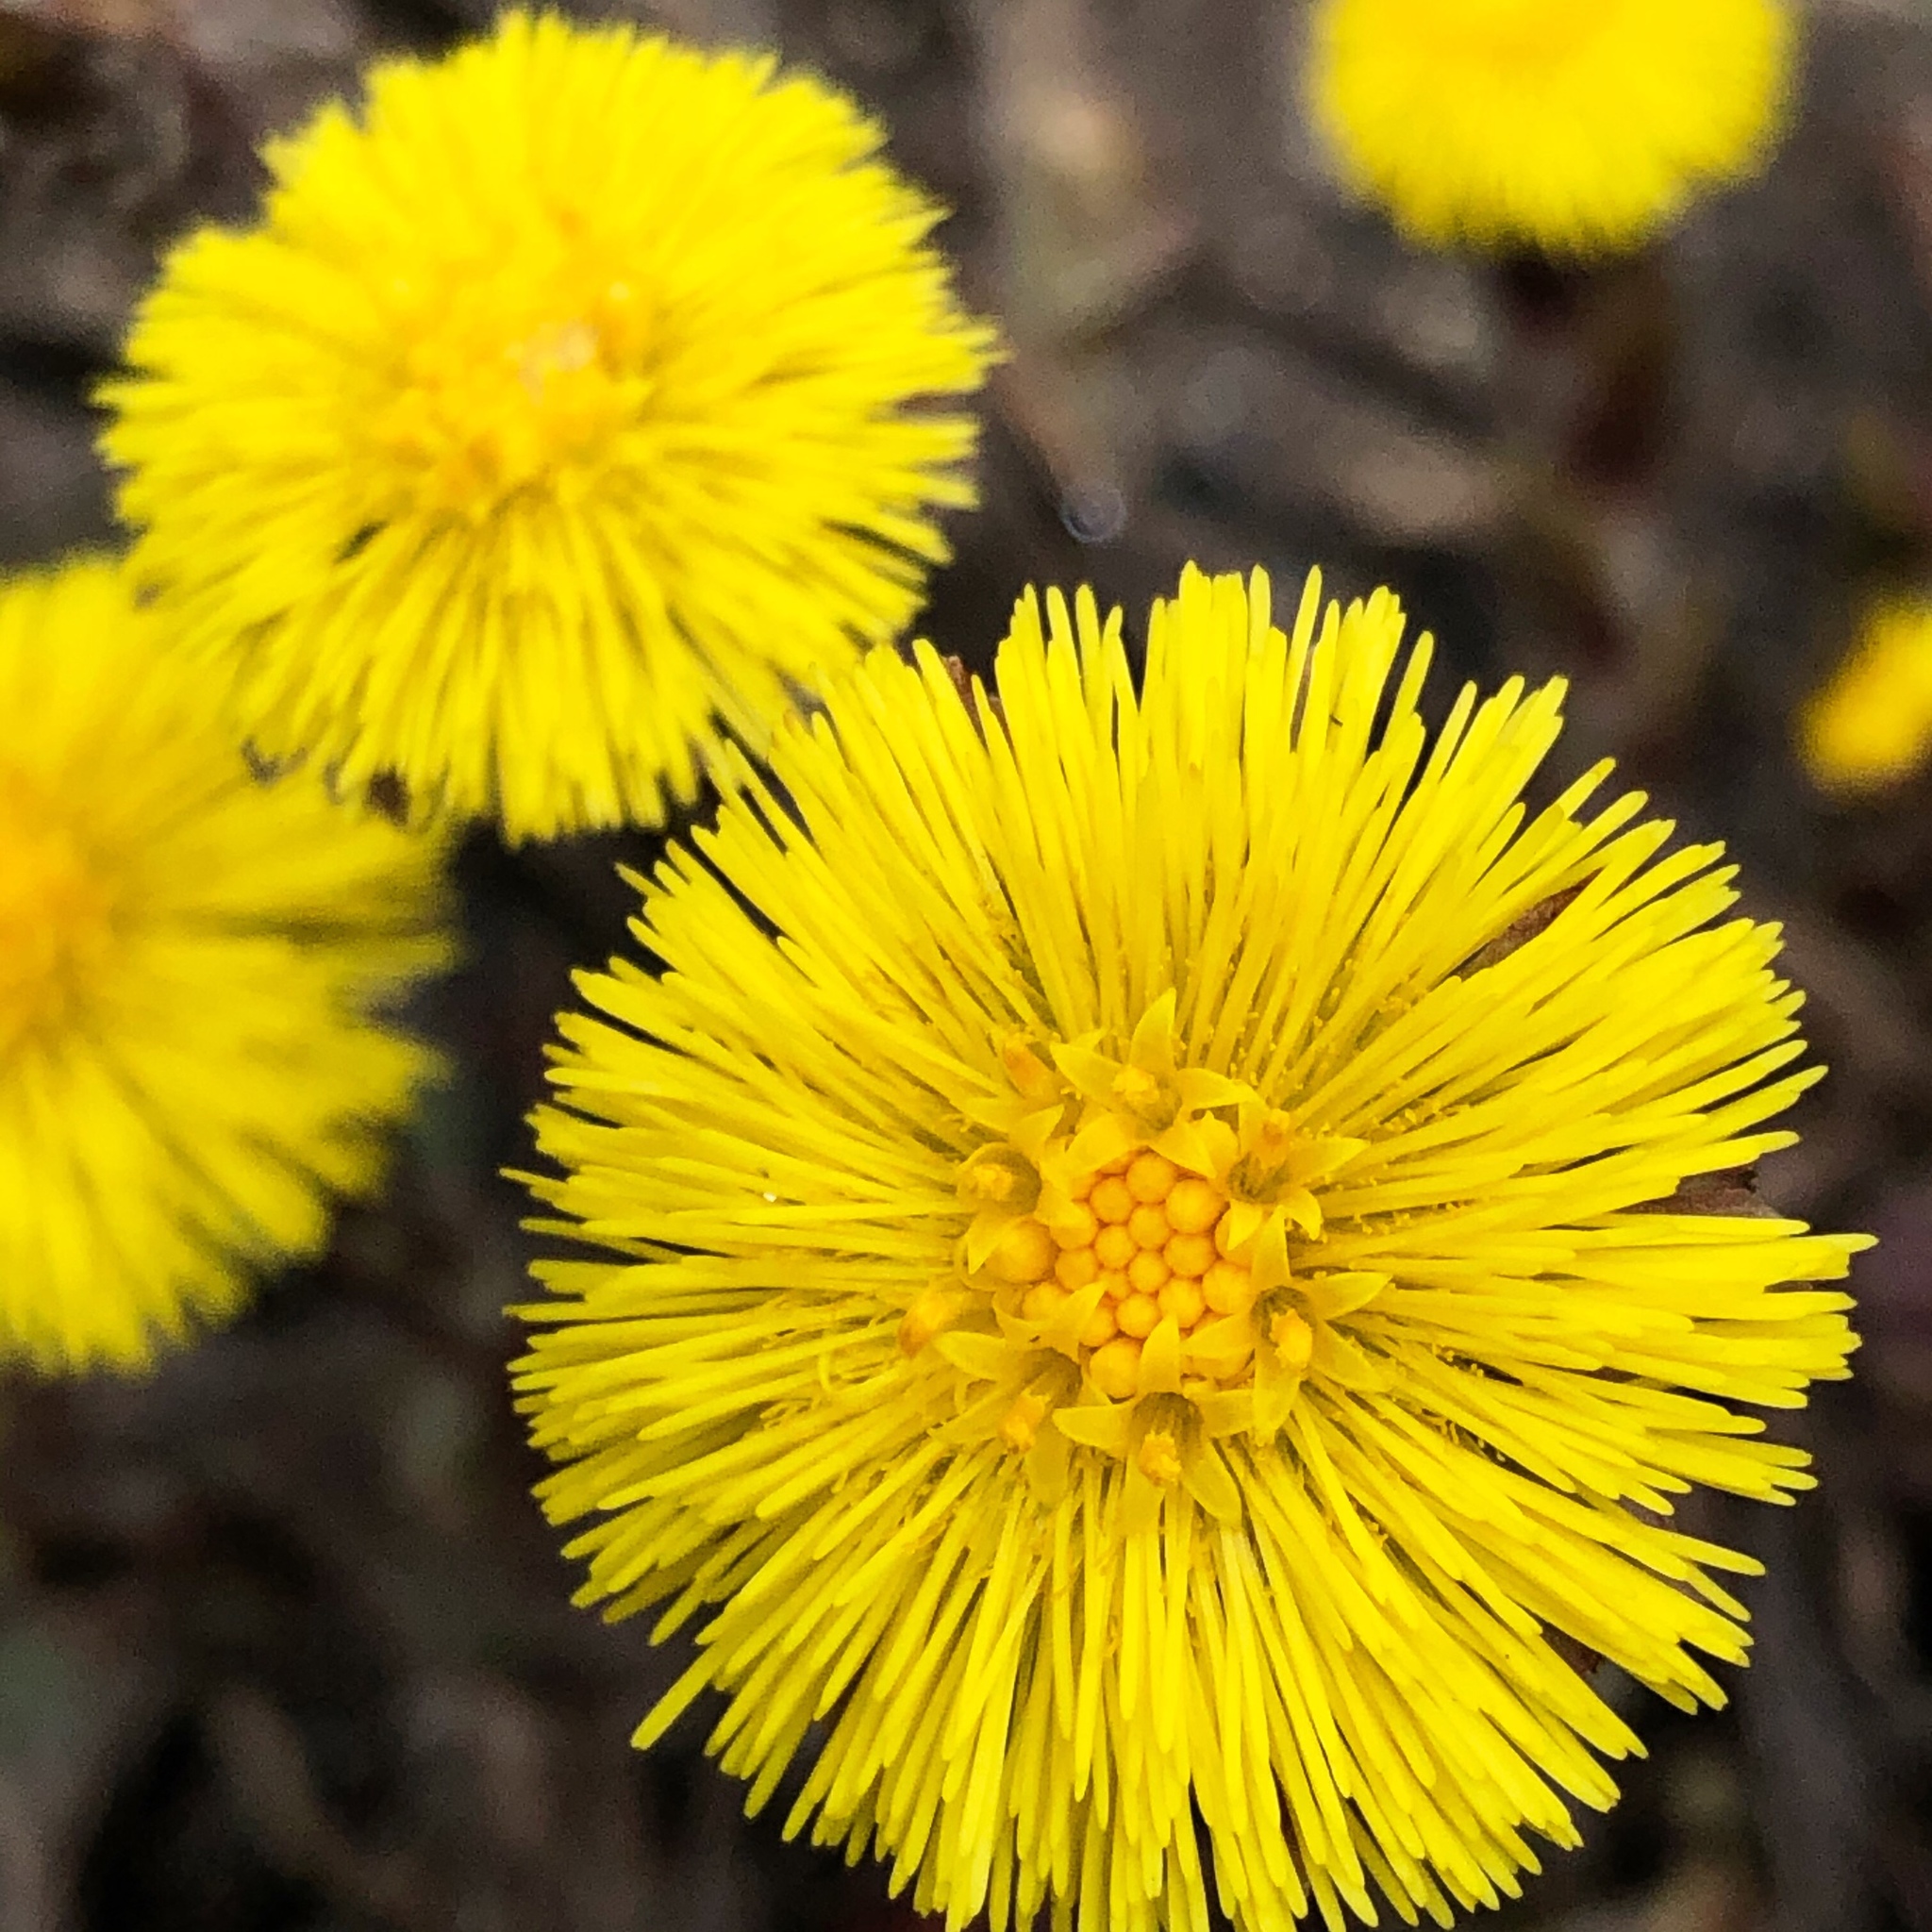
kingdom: Plantae
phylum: Tracheophyta
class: Magnoliopsida
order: Asterales
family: Asteraceae
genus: Tussilago
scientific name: Tussilago farfara
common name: Coltsfoot
